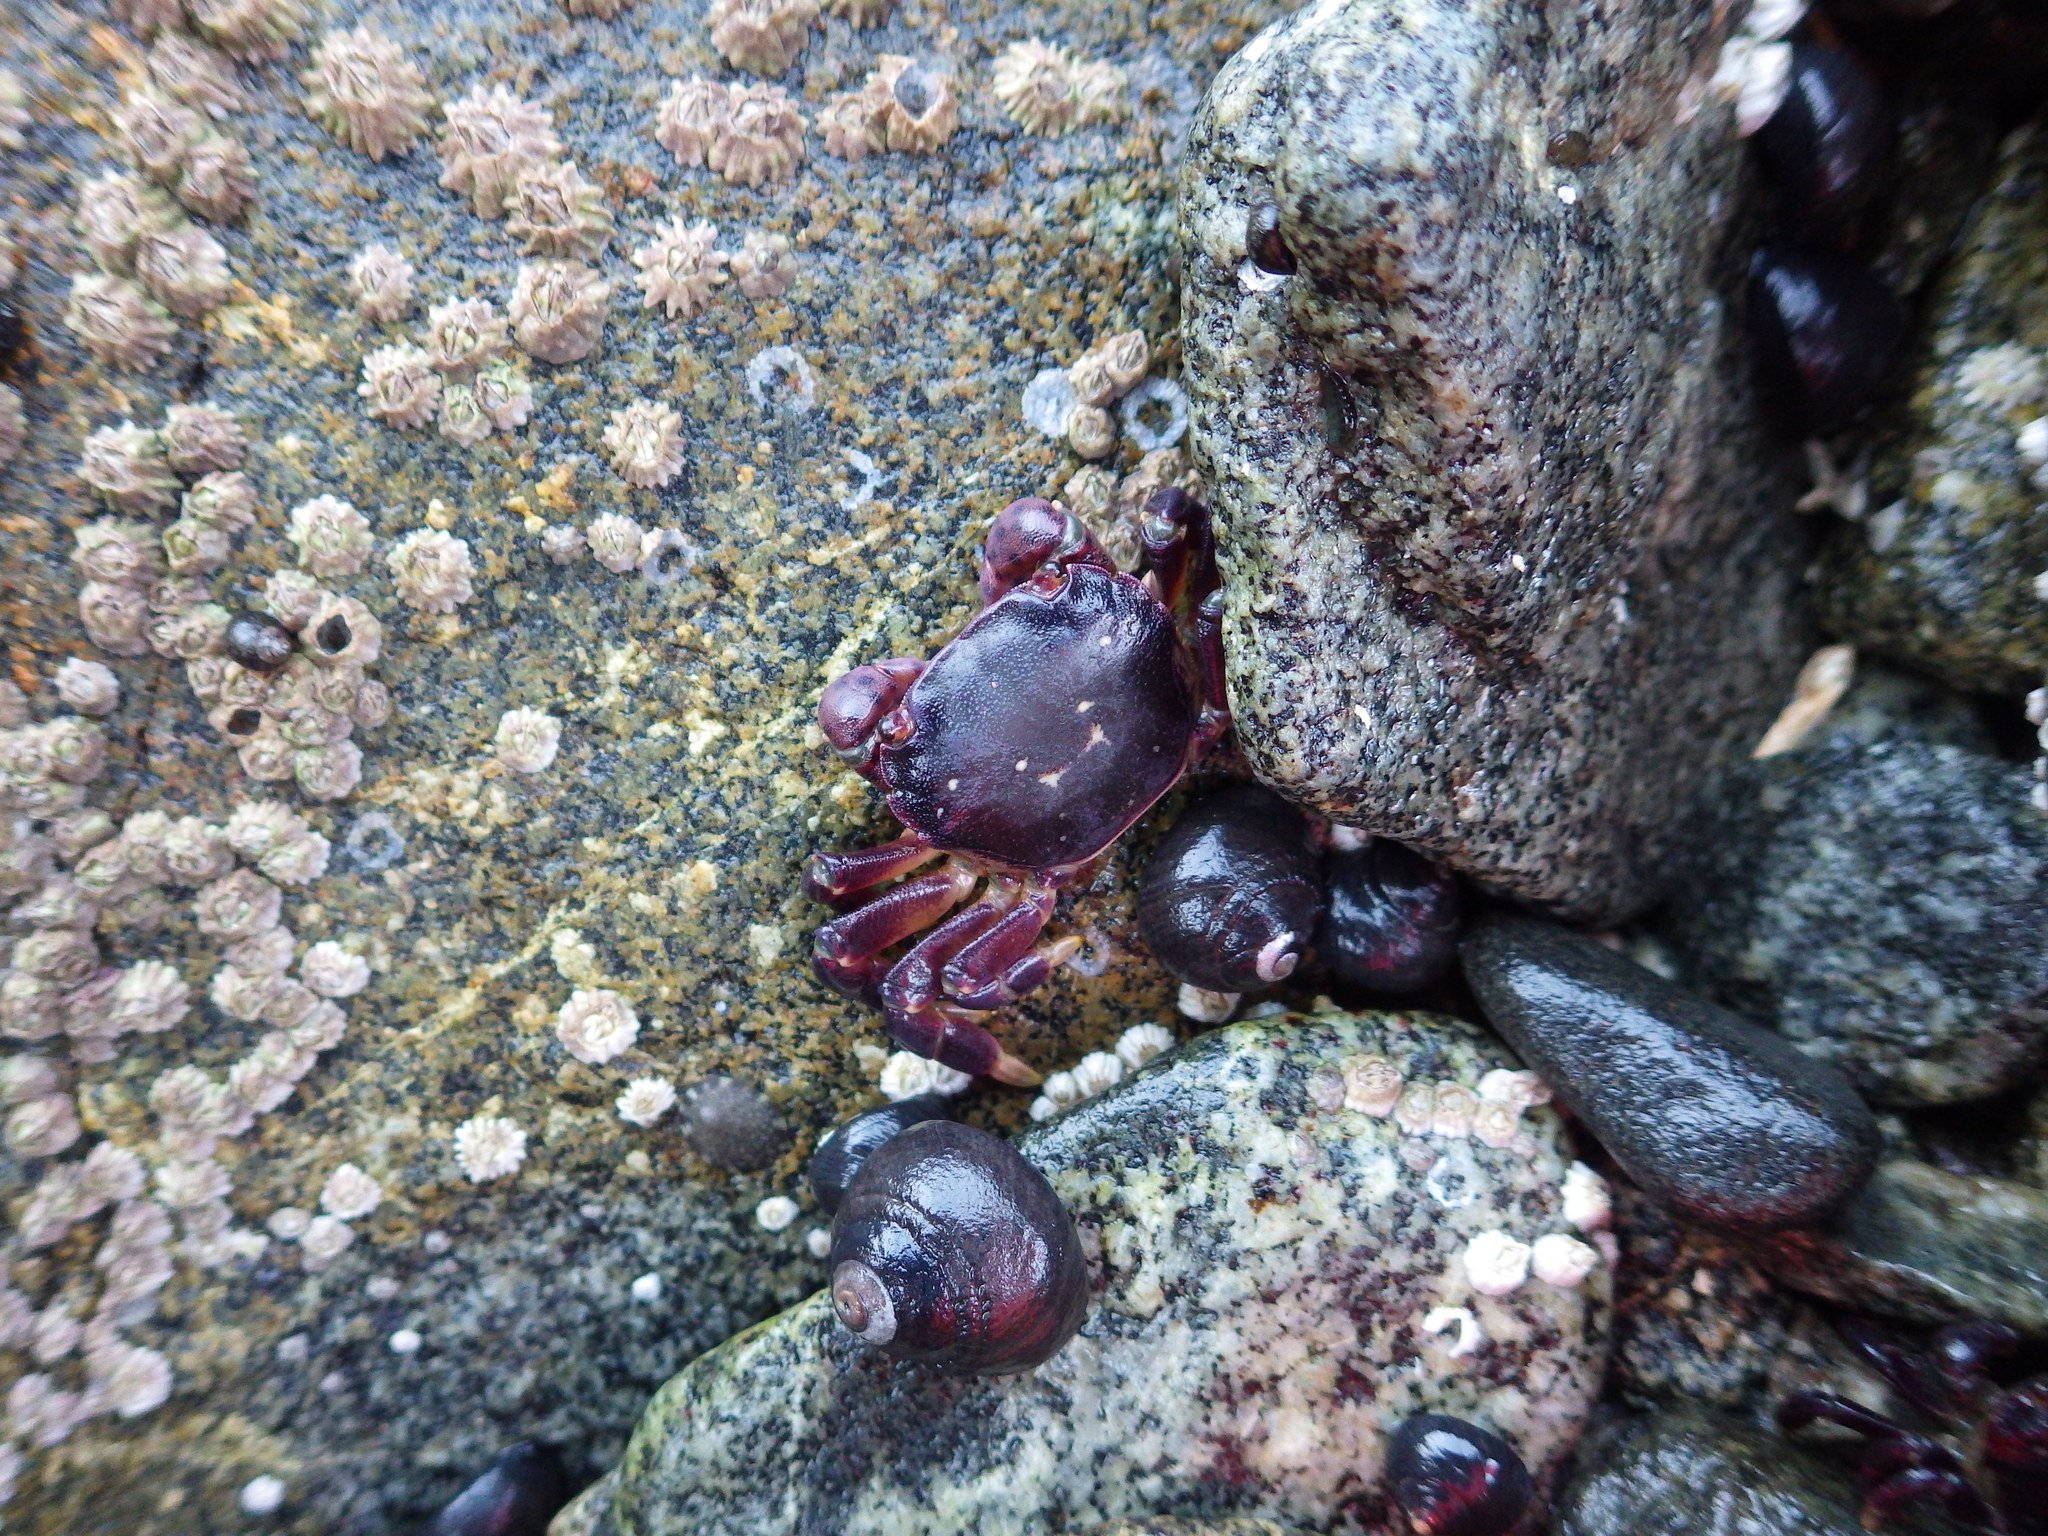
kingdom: Animalia
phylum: Arthropoda
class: Malacostraca
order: Decapoda
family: Varunidae
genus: Hemigrapsus
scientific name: Hemigrapsus nudus
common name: Purple shore crab
